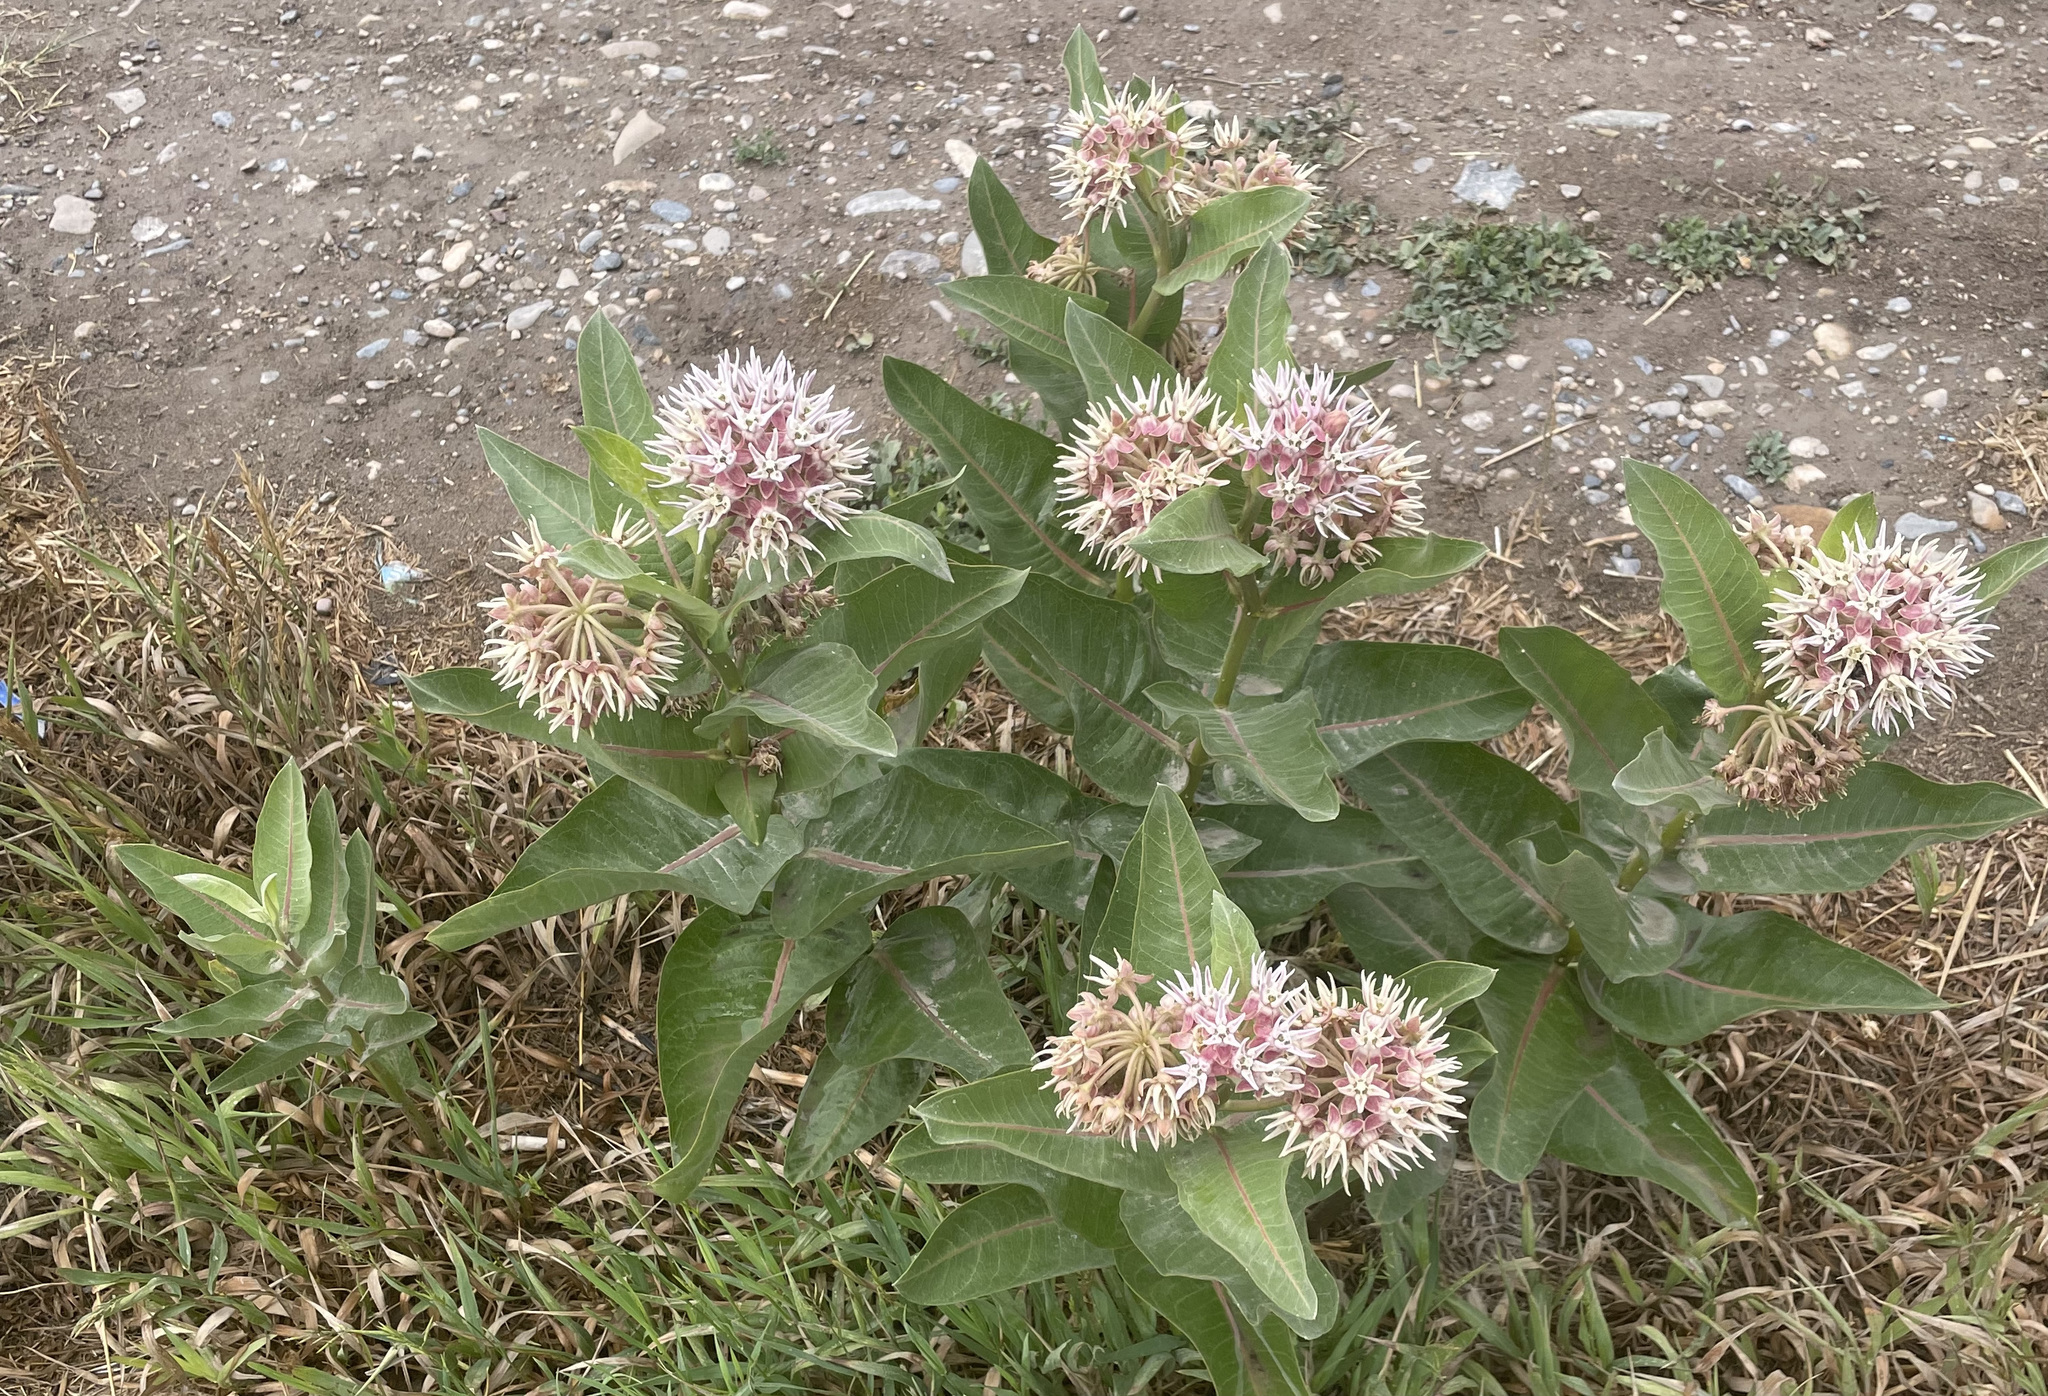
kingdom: Plantae
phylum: Tracheophyta
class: Magnoliopsida
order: Gentianales
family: Apocynaceae
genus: Asclepias
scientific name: Asclepias speciosa
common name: Showy milkweed
